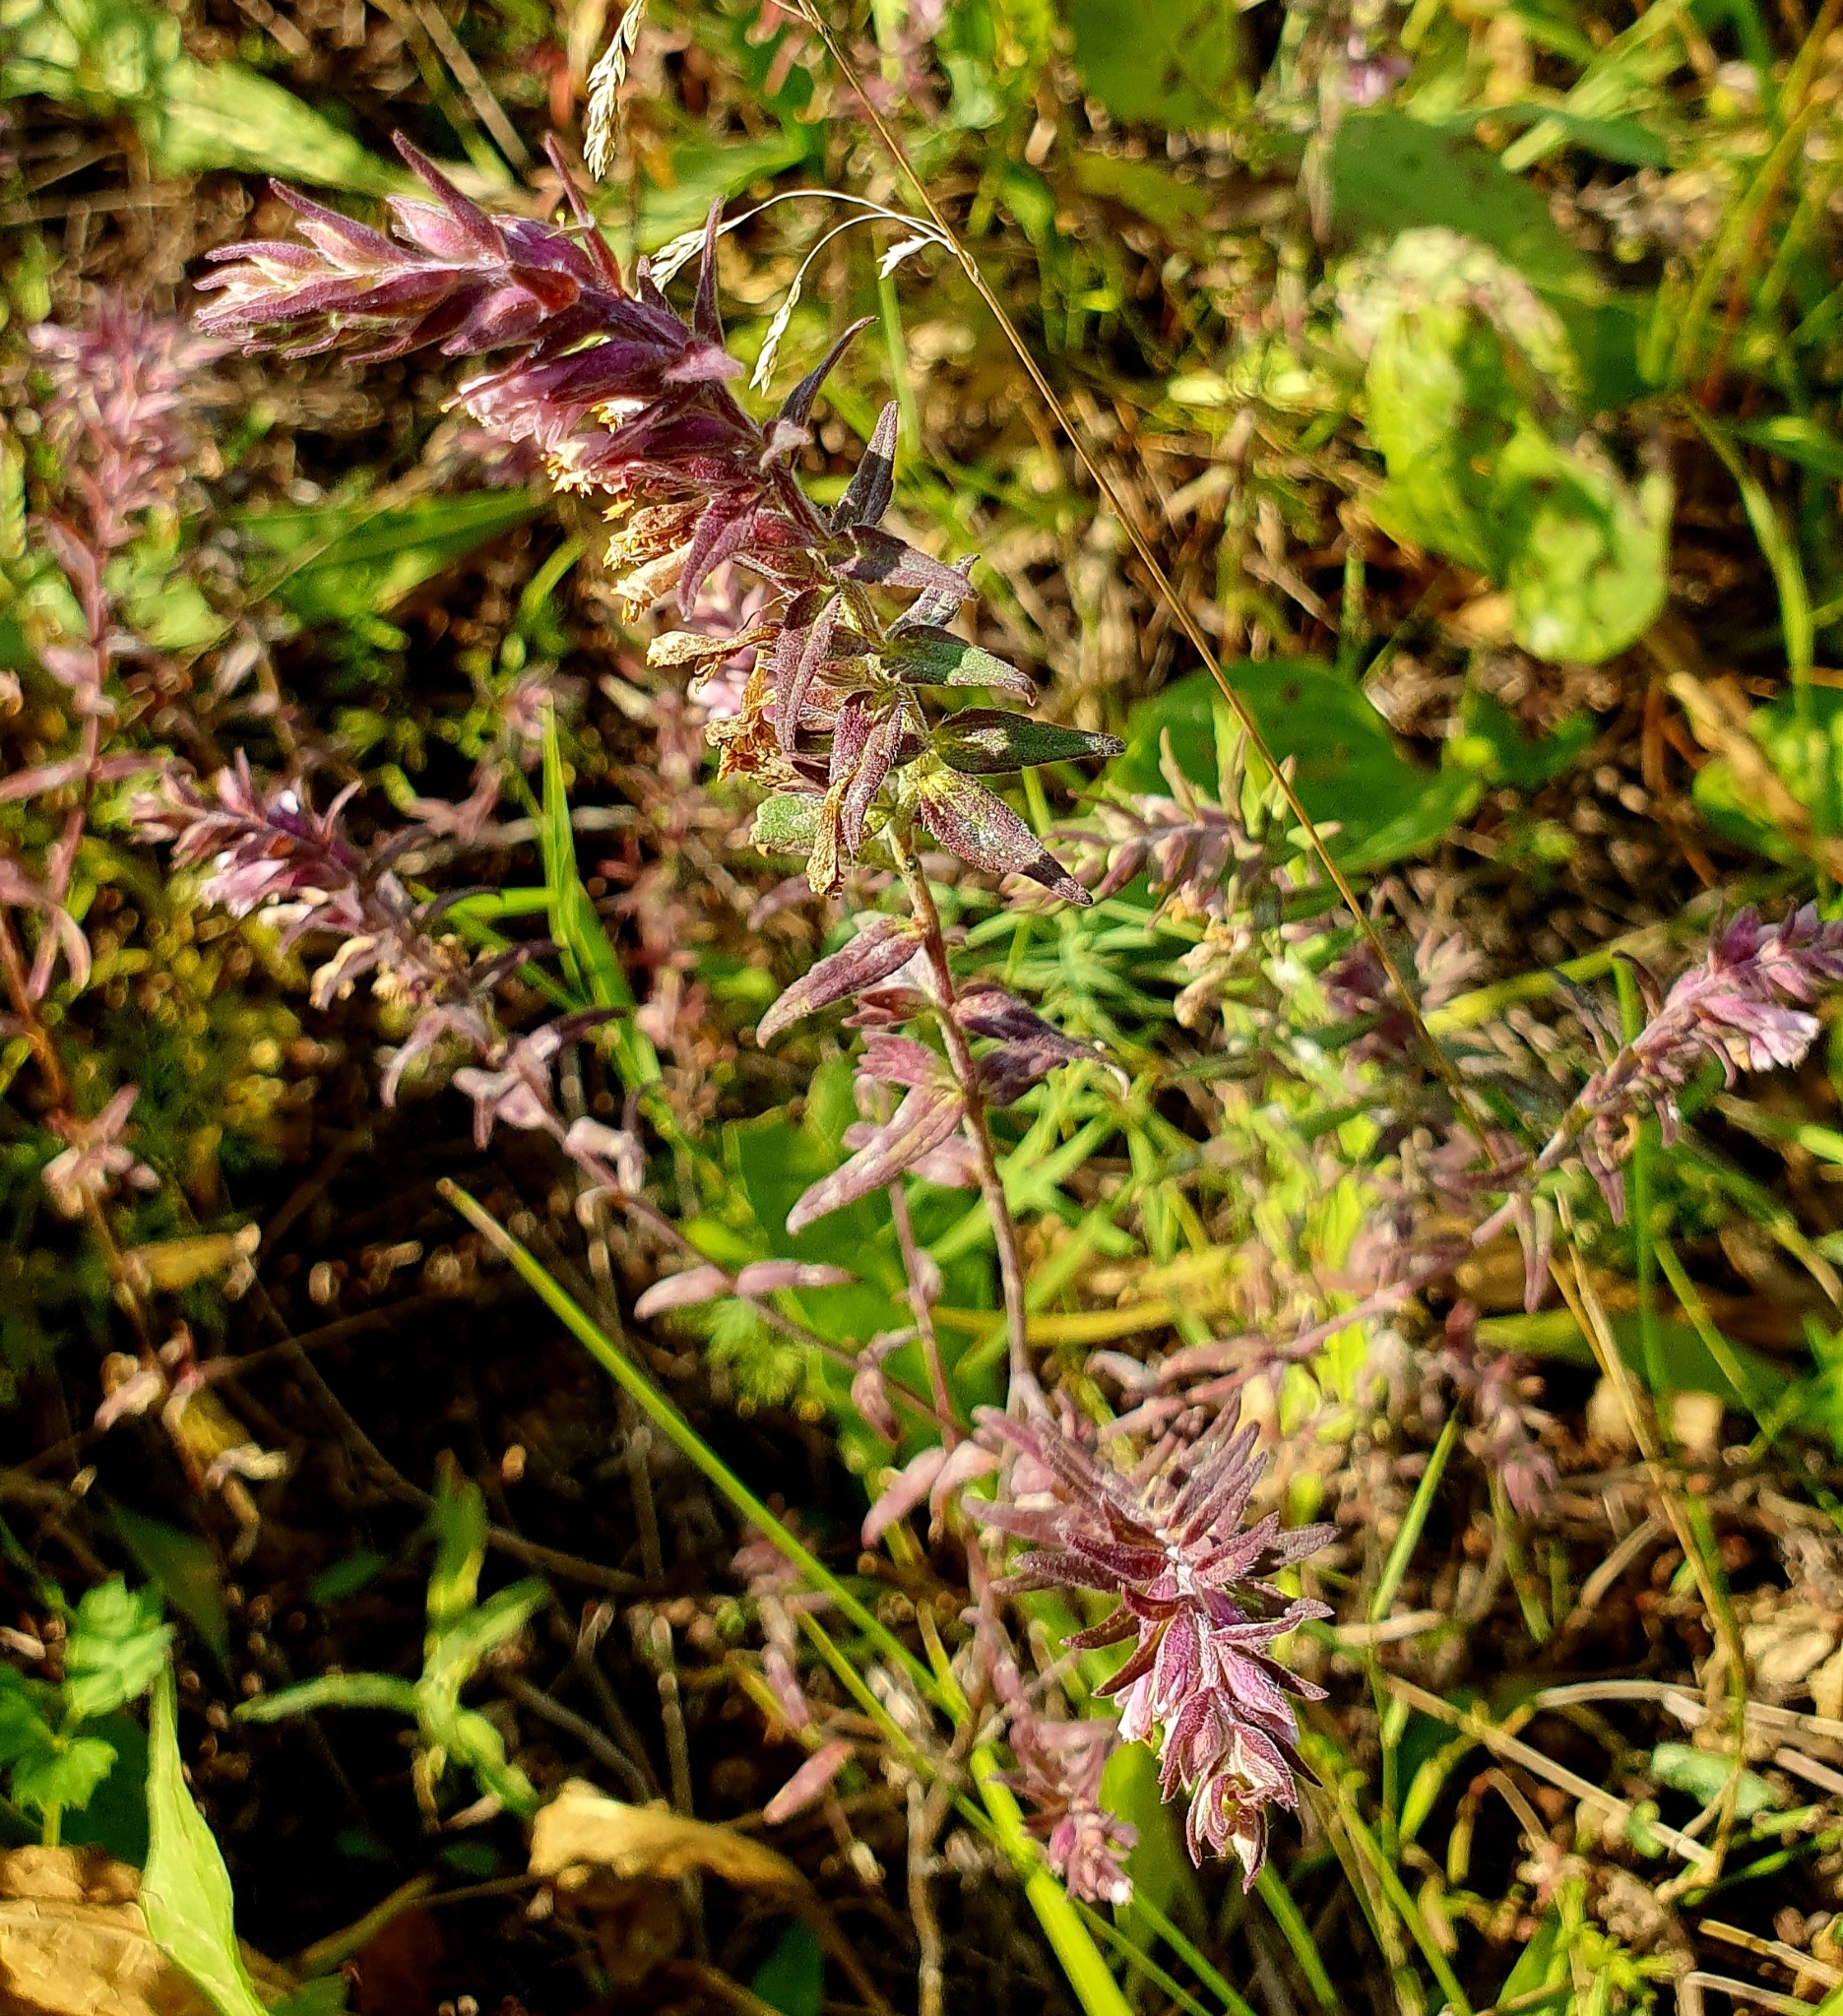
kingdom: Plantae
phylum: Tracheophyta
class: Magnoliopsida
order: Lamiales
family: Orobanchaceae
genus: Odontites
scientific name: Odontites vulgaris
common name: Broomrape
